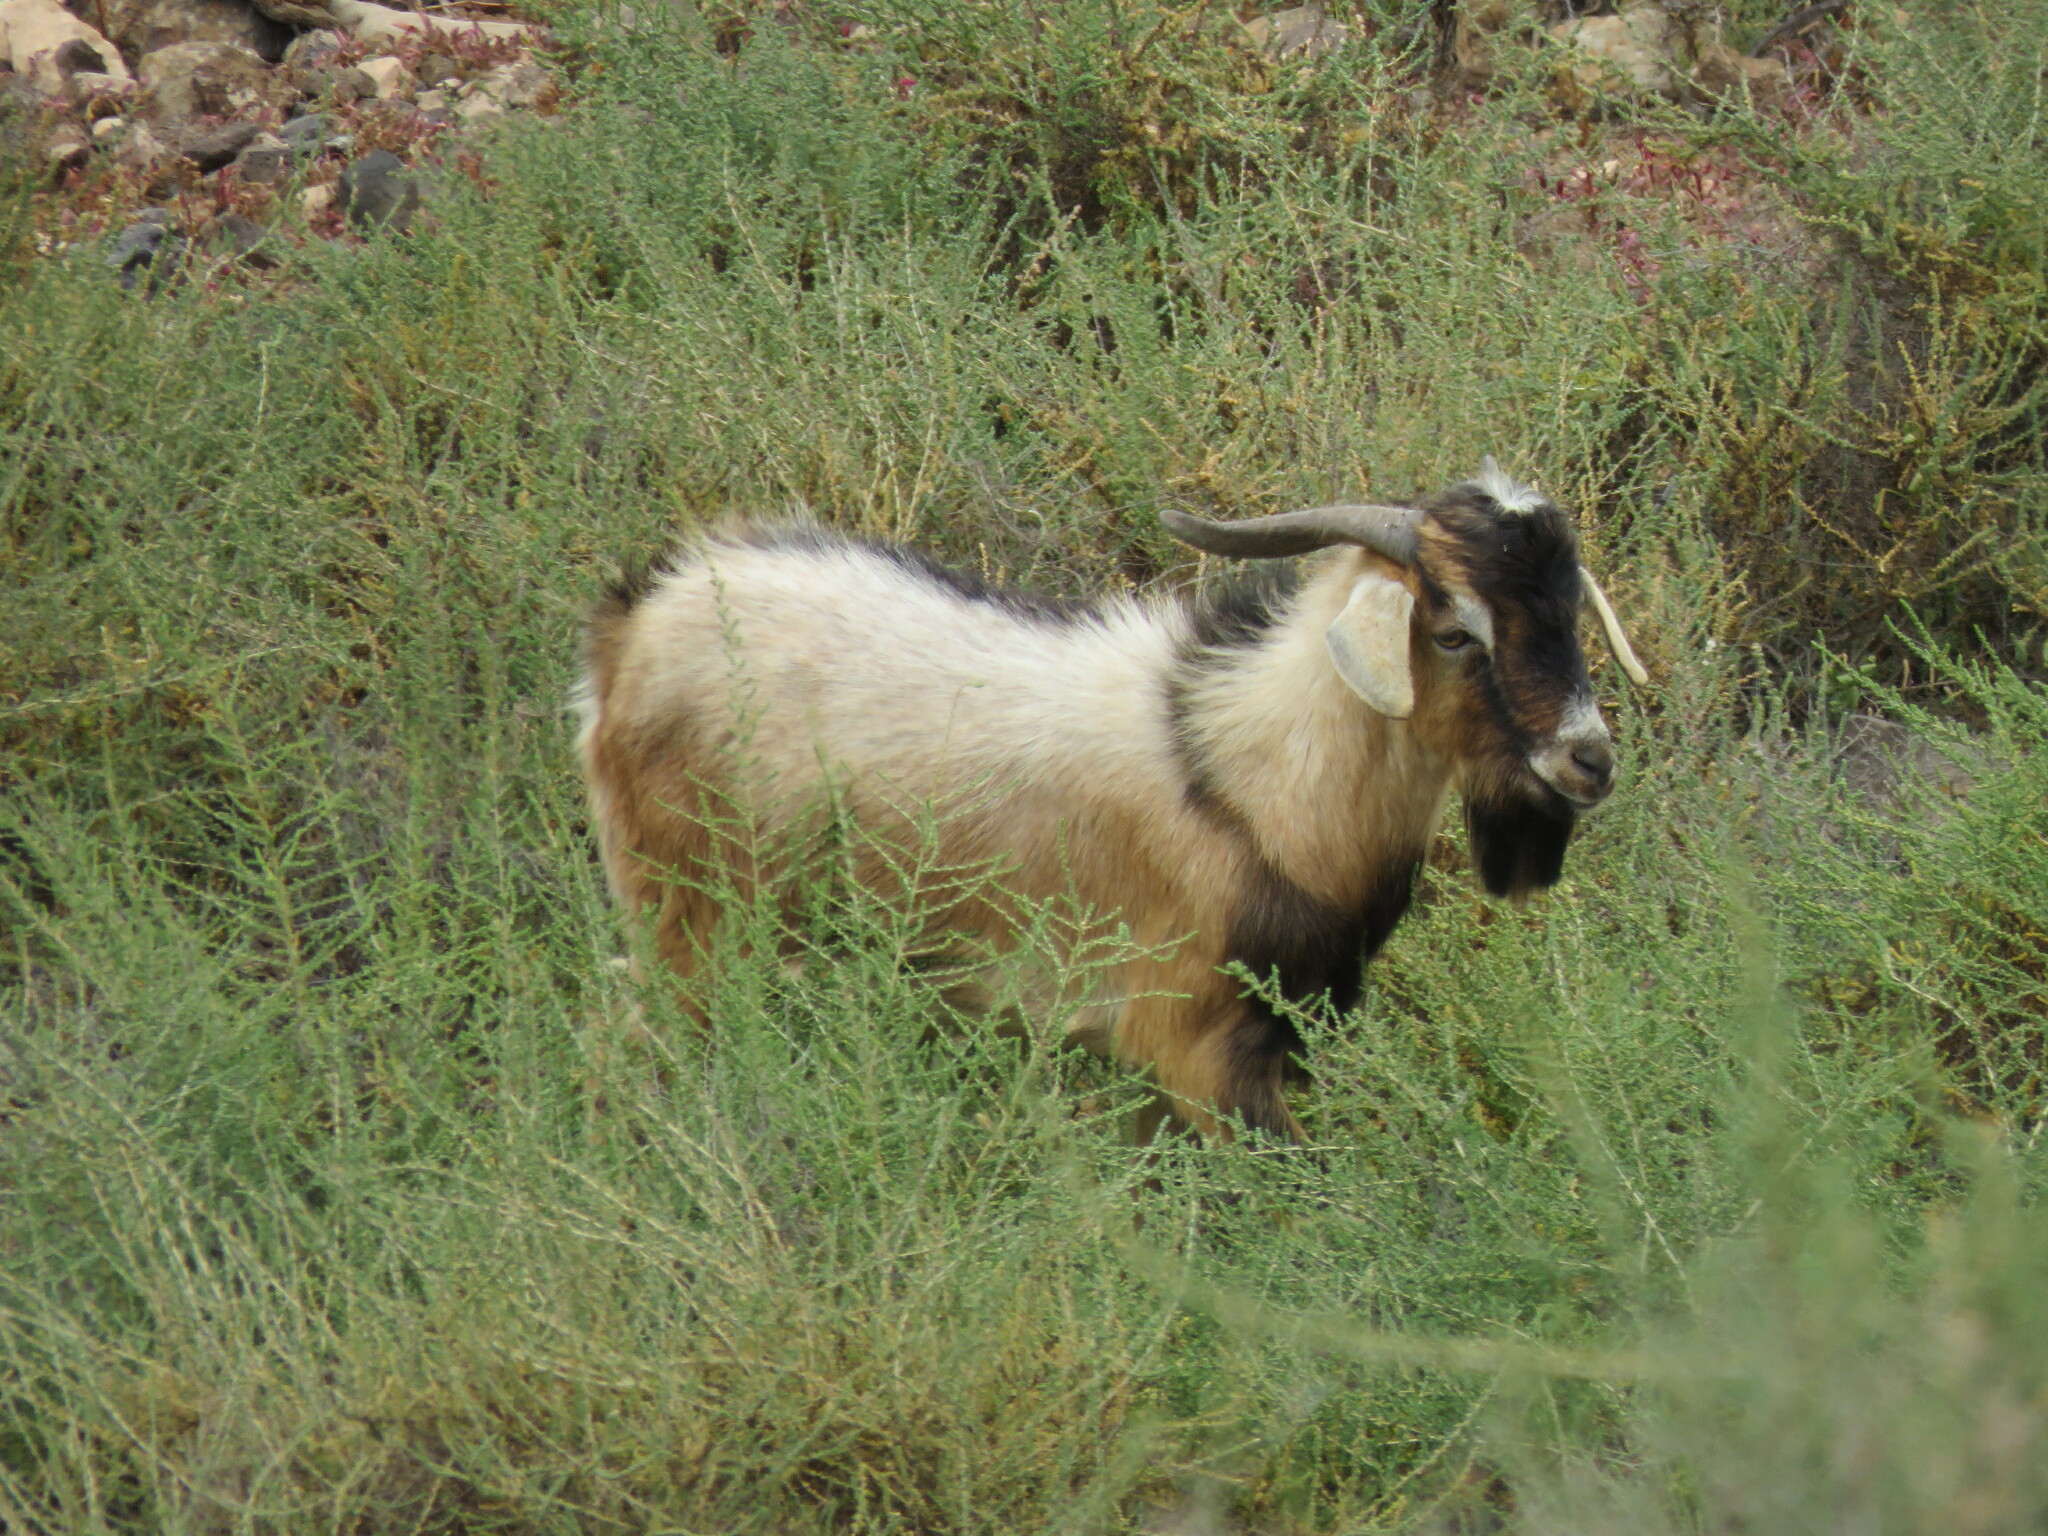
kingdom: Animalia
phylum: Chordata
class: Mammalia
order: Artiodactyla
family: Bovidae
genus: Capra
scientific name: Capra hircus
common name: Domestic goat
